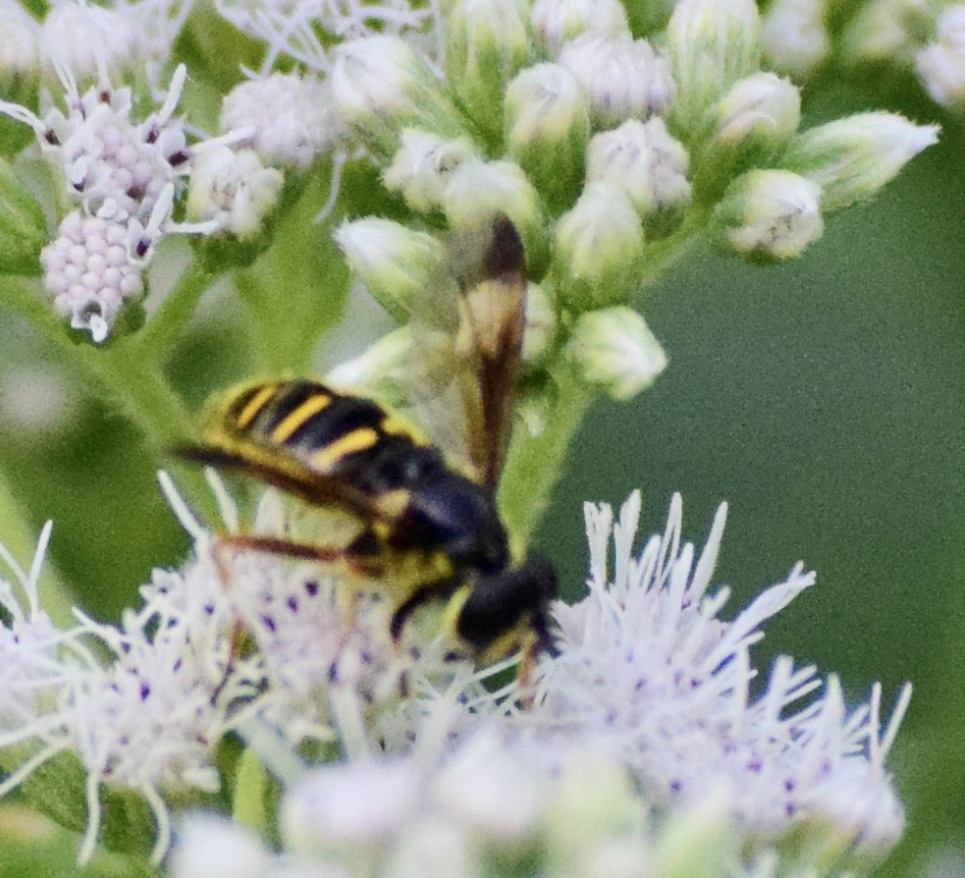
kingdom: Animalia
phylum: Arthropoda
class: Insecta
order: Diptera
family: Syrphidae
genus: Sericomyia
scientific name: Sericomyia chrysotoxoides
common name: Oblique-banded pond fly
